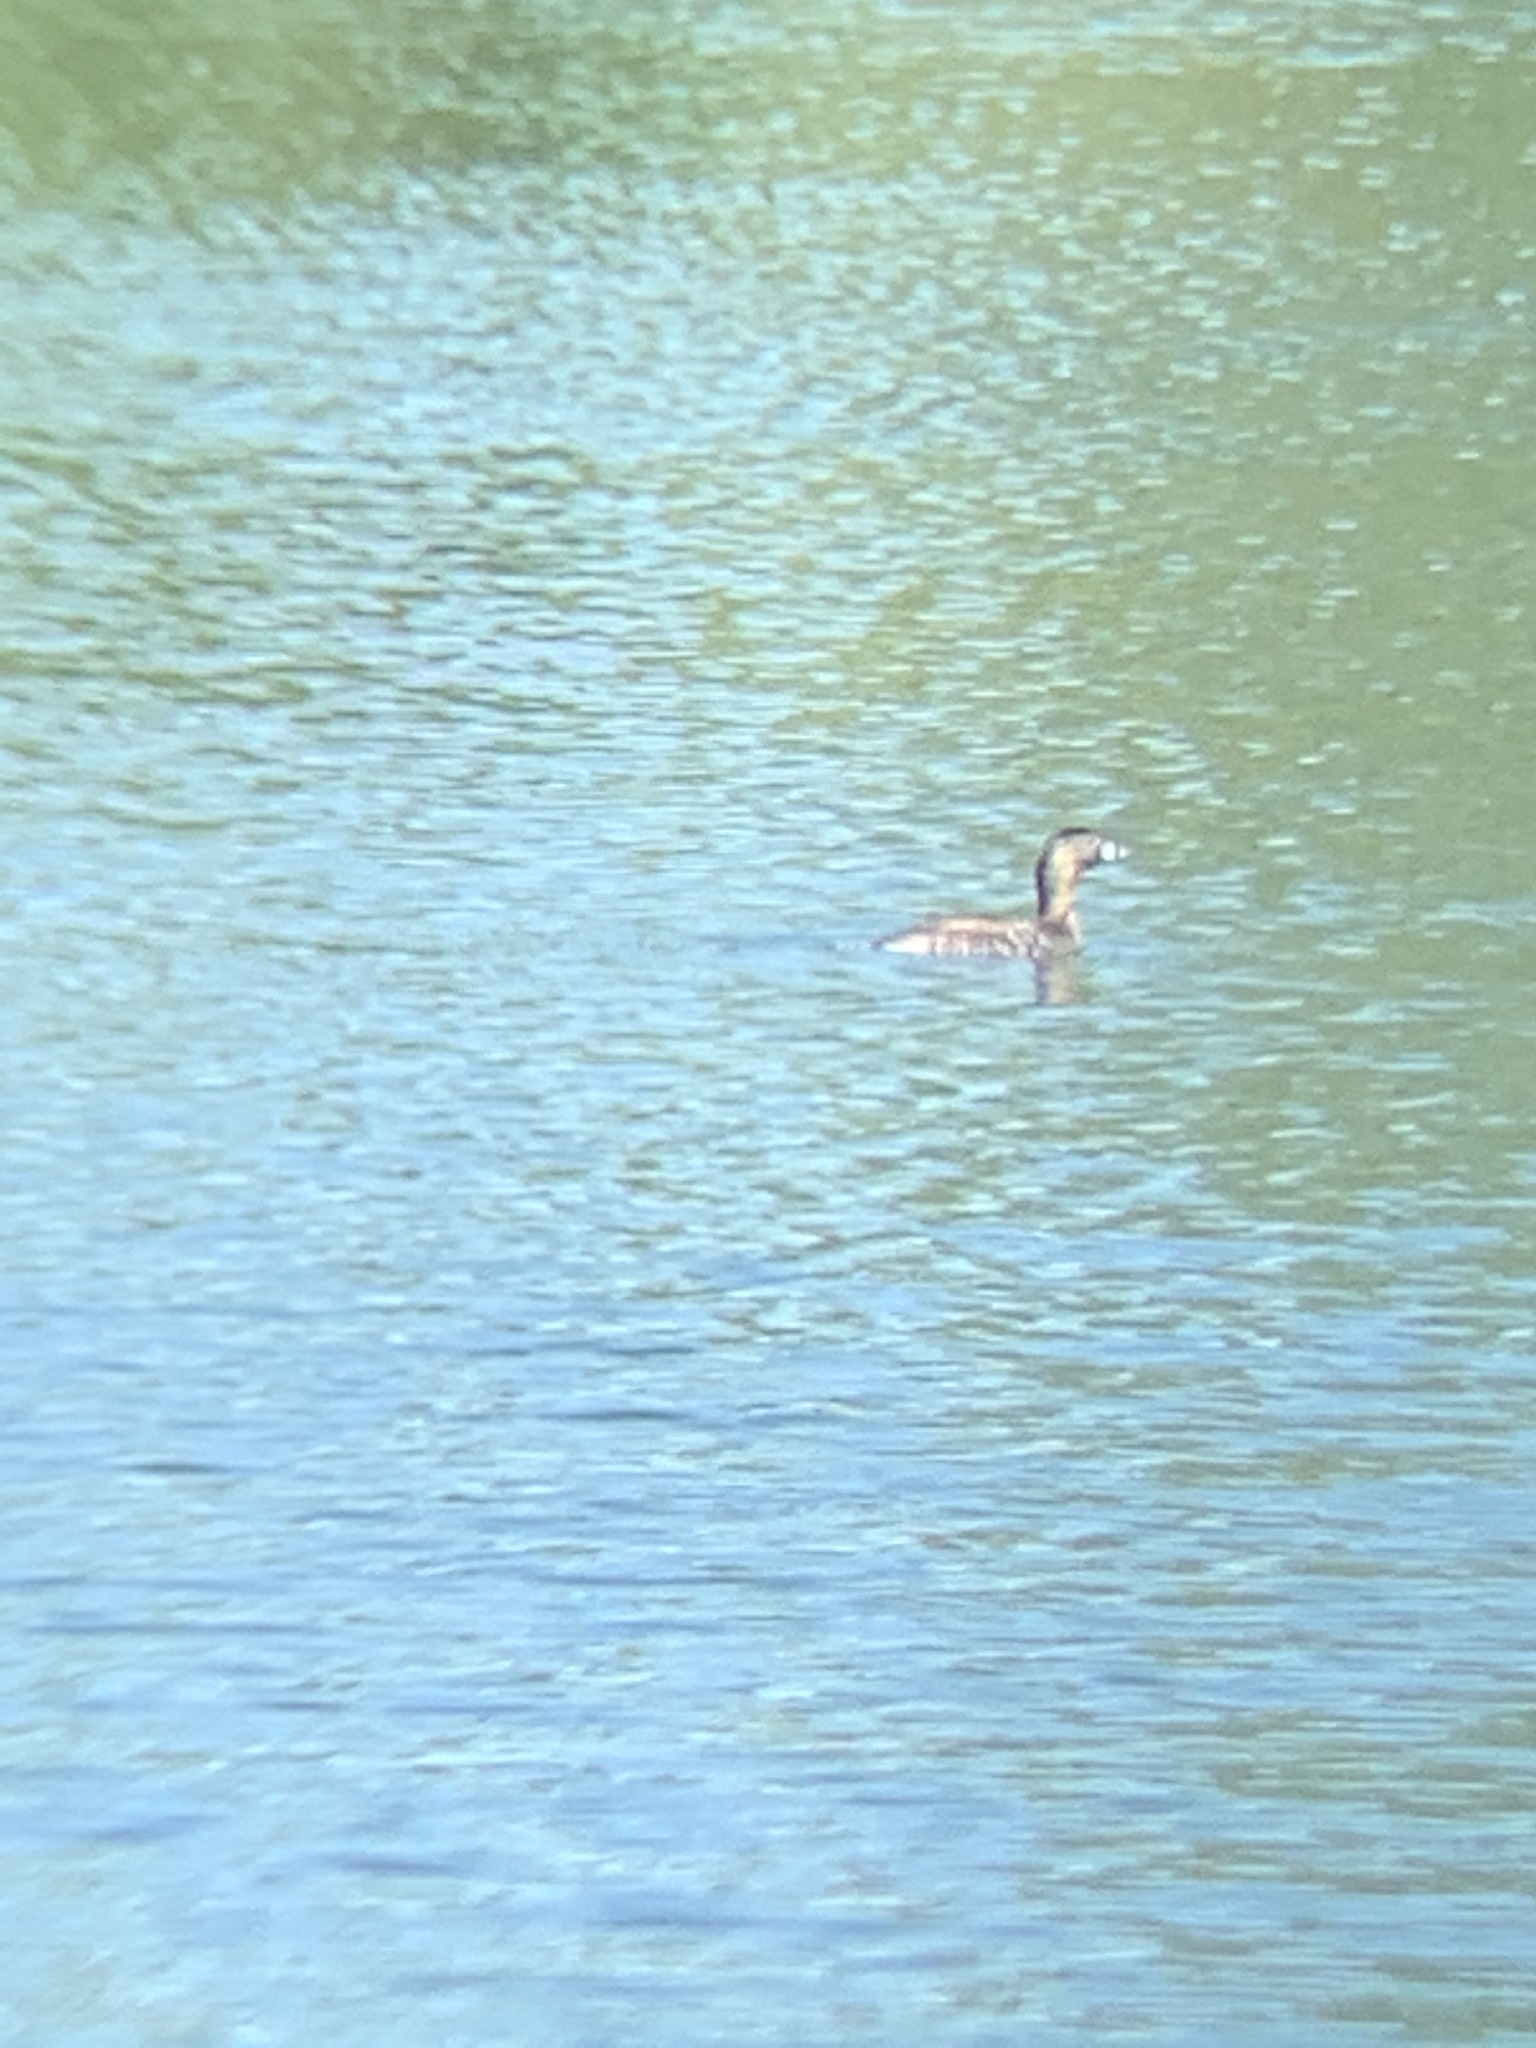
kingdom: Animalia
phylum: Chordata
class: Aves
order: Podicipediformes
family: Podicipedidae
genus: Podilymbus
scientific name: Podilymbus podiceps
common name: Pied-billed grebe
